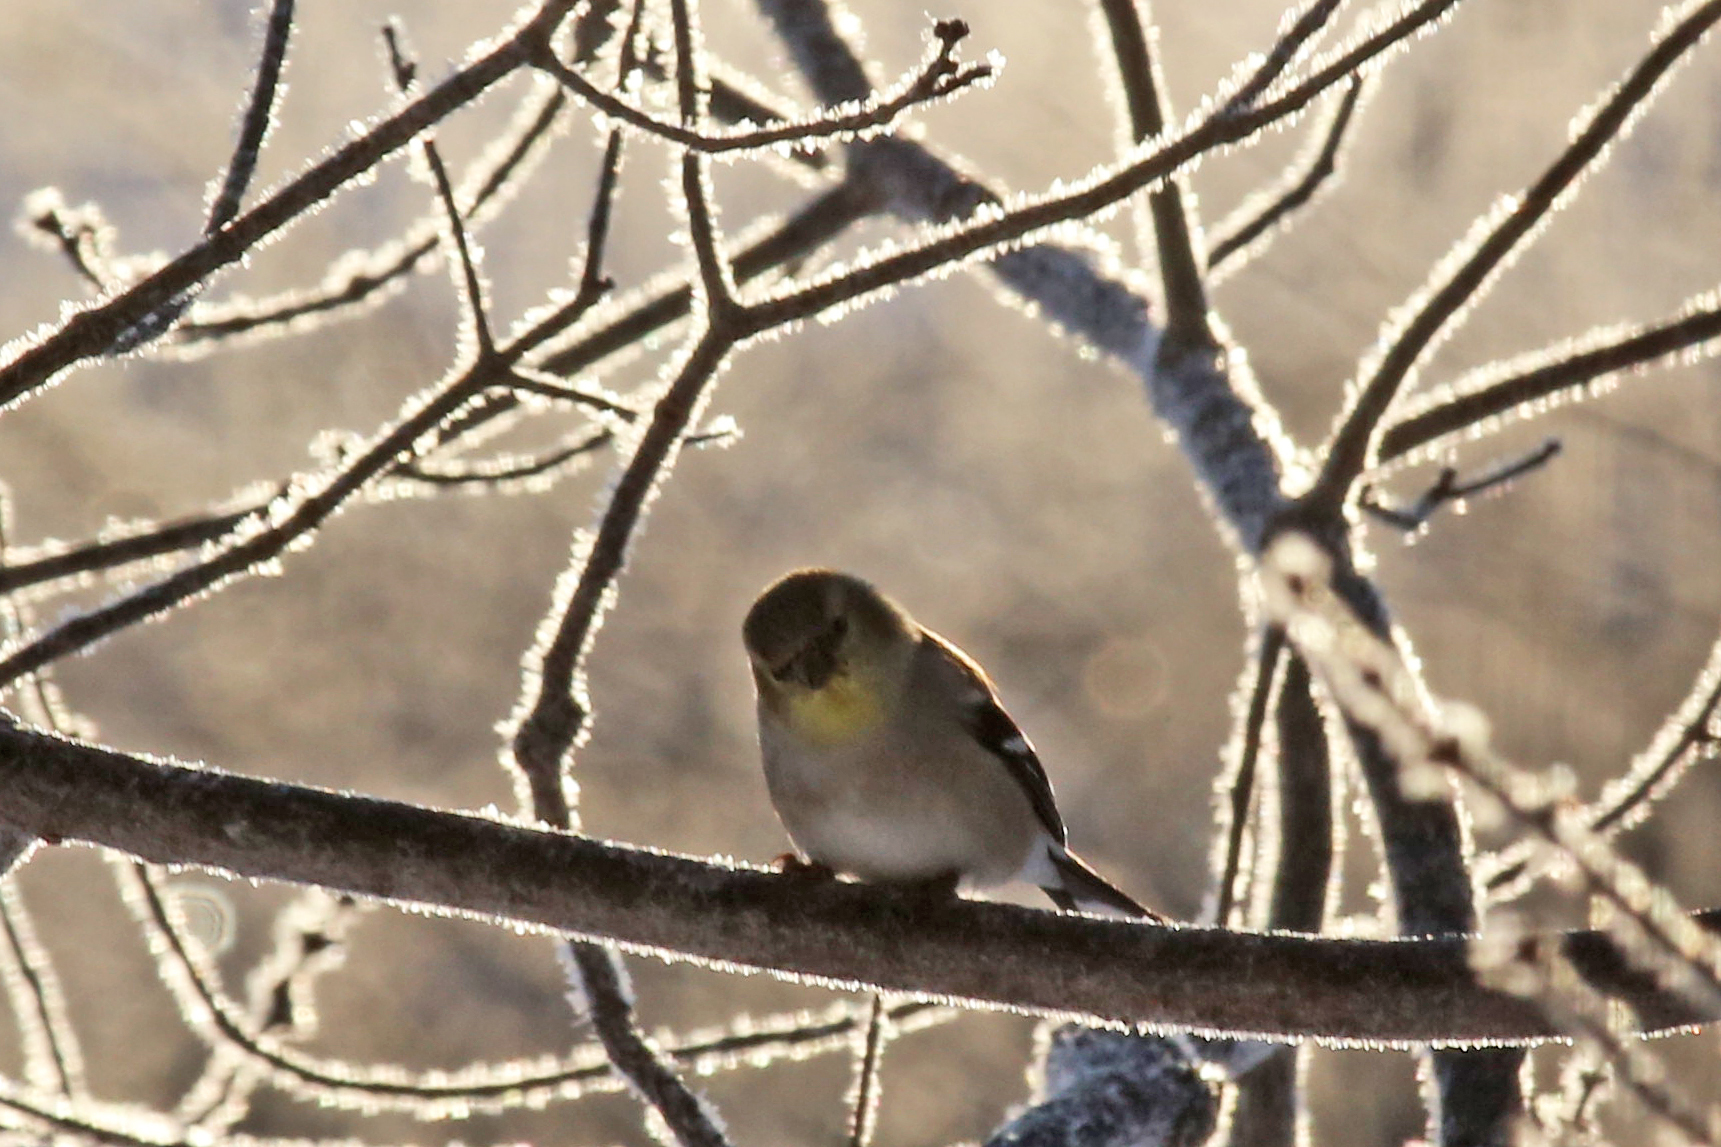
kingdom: Animalia
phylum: Chordata
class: Aves
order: Passeriformes
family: Fringillidae
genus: Spinus
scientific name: Spinus tristis
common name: American goldfinch
